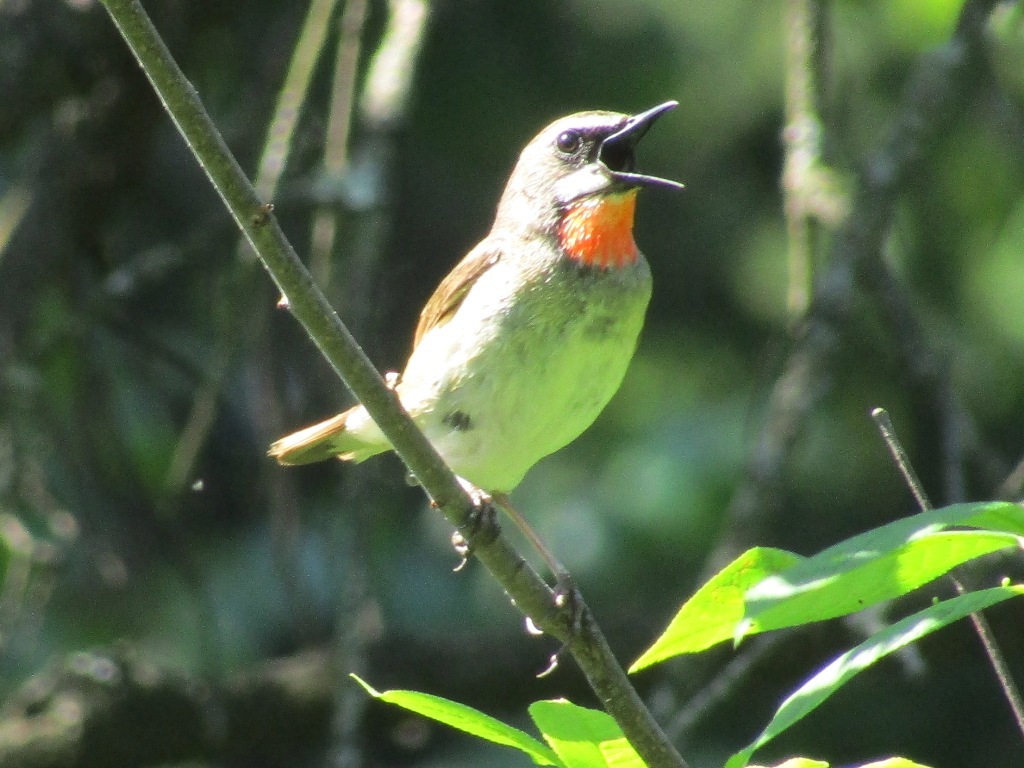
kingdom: Animalia
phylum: Chordata
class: Aves
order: Passeriformes
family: Muscicapidae
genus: Luscinia
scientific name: Luscinia calliope
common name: Siberian rubythroat
